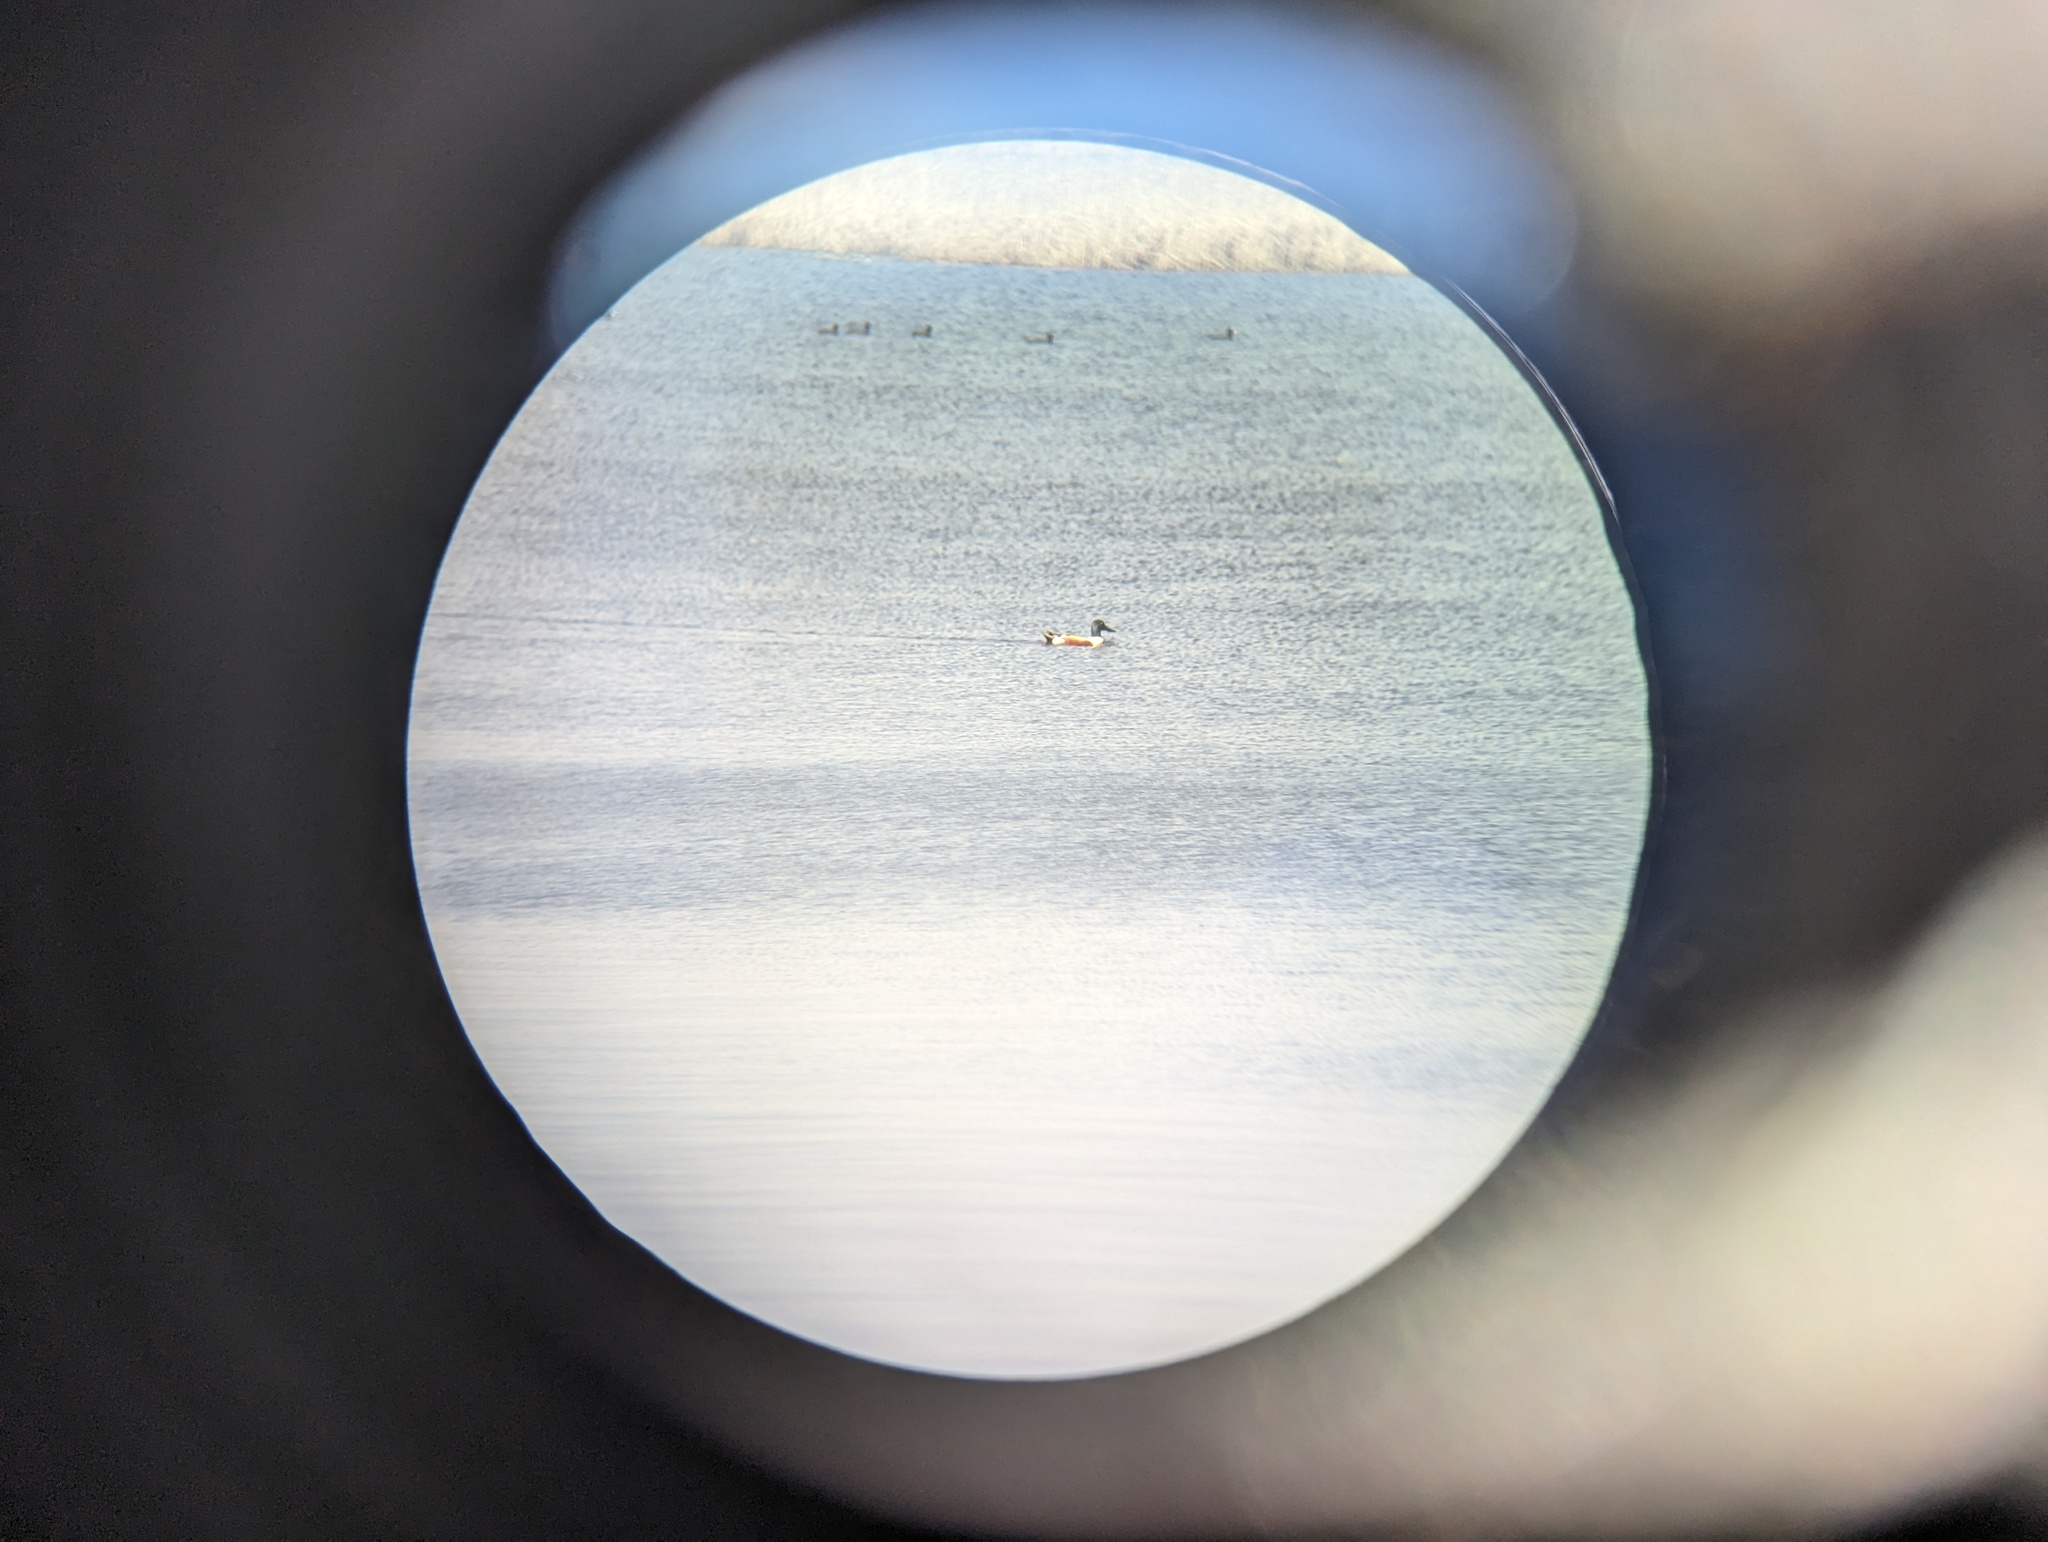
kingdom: Animalia
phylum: Chordata
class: Aves
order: Anseriformes
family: Anatidae
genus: Spatula
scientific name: Spatula clypeata
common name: Northern shoveler
